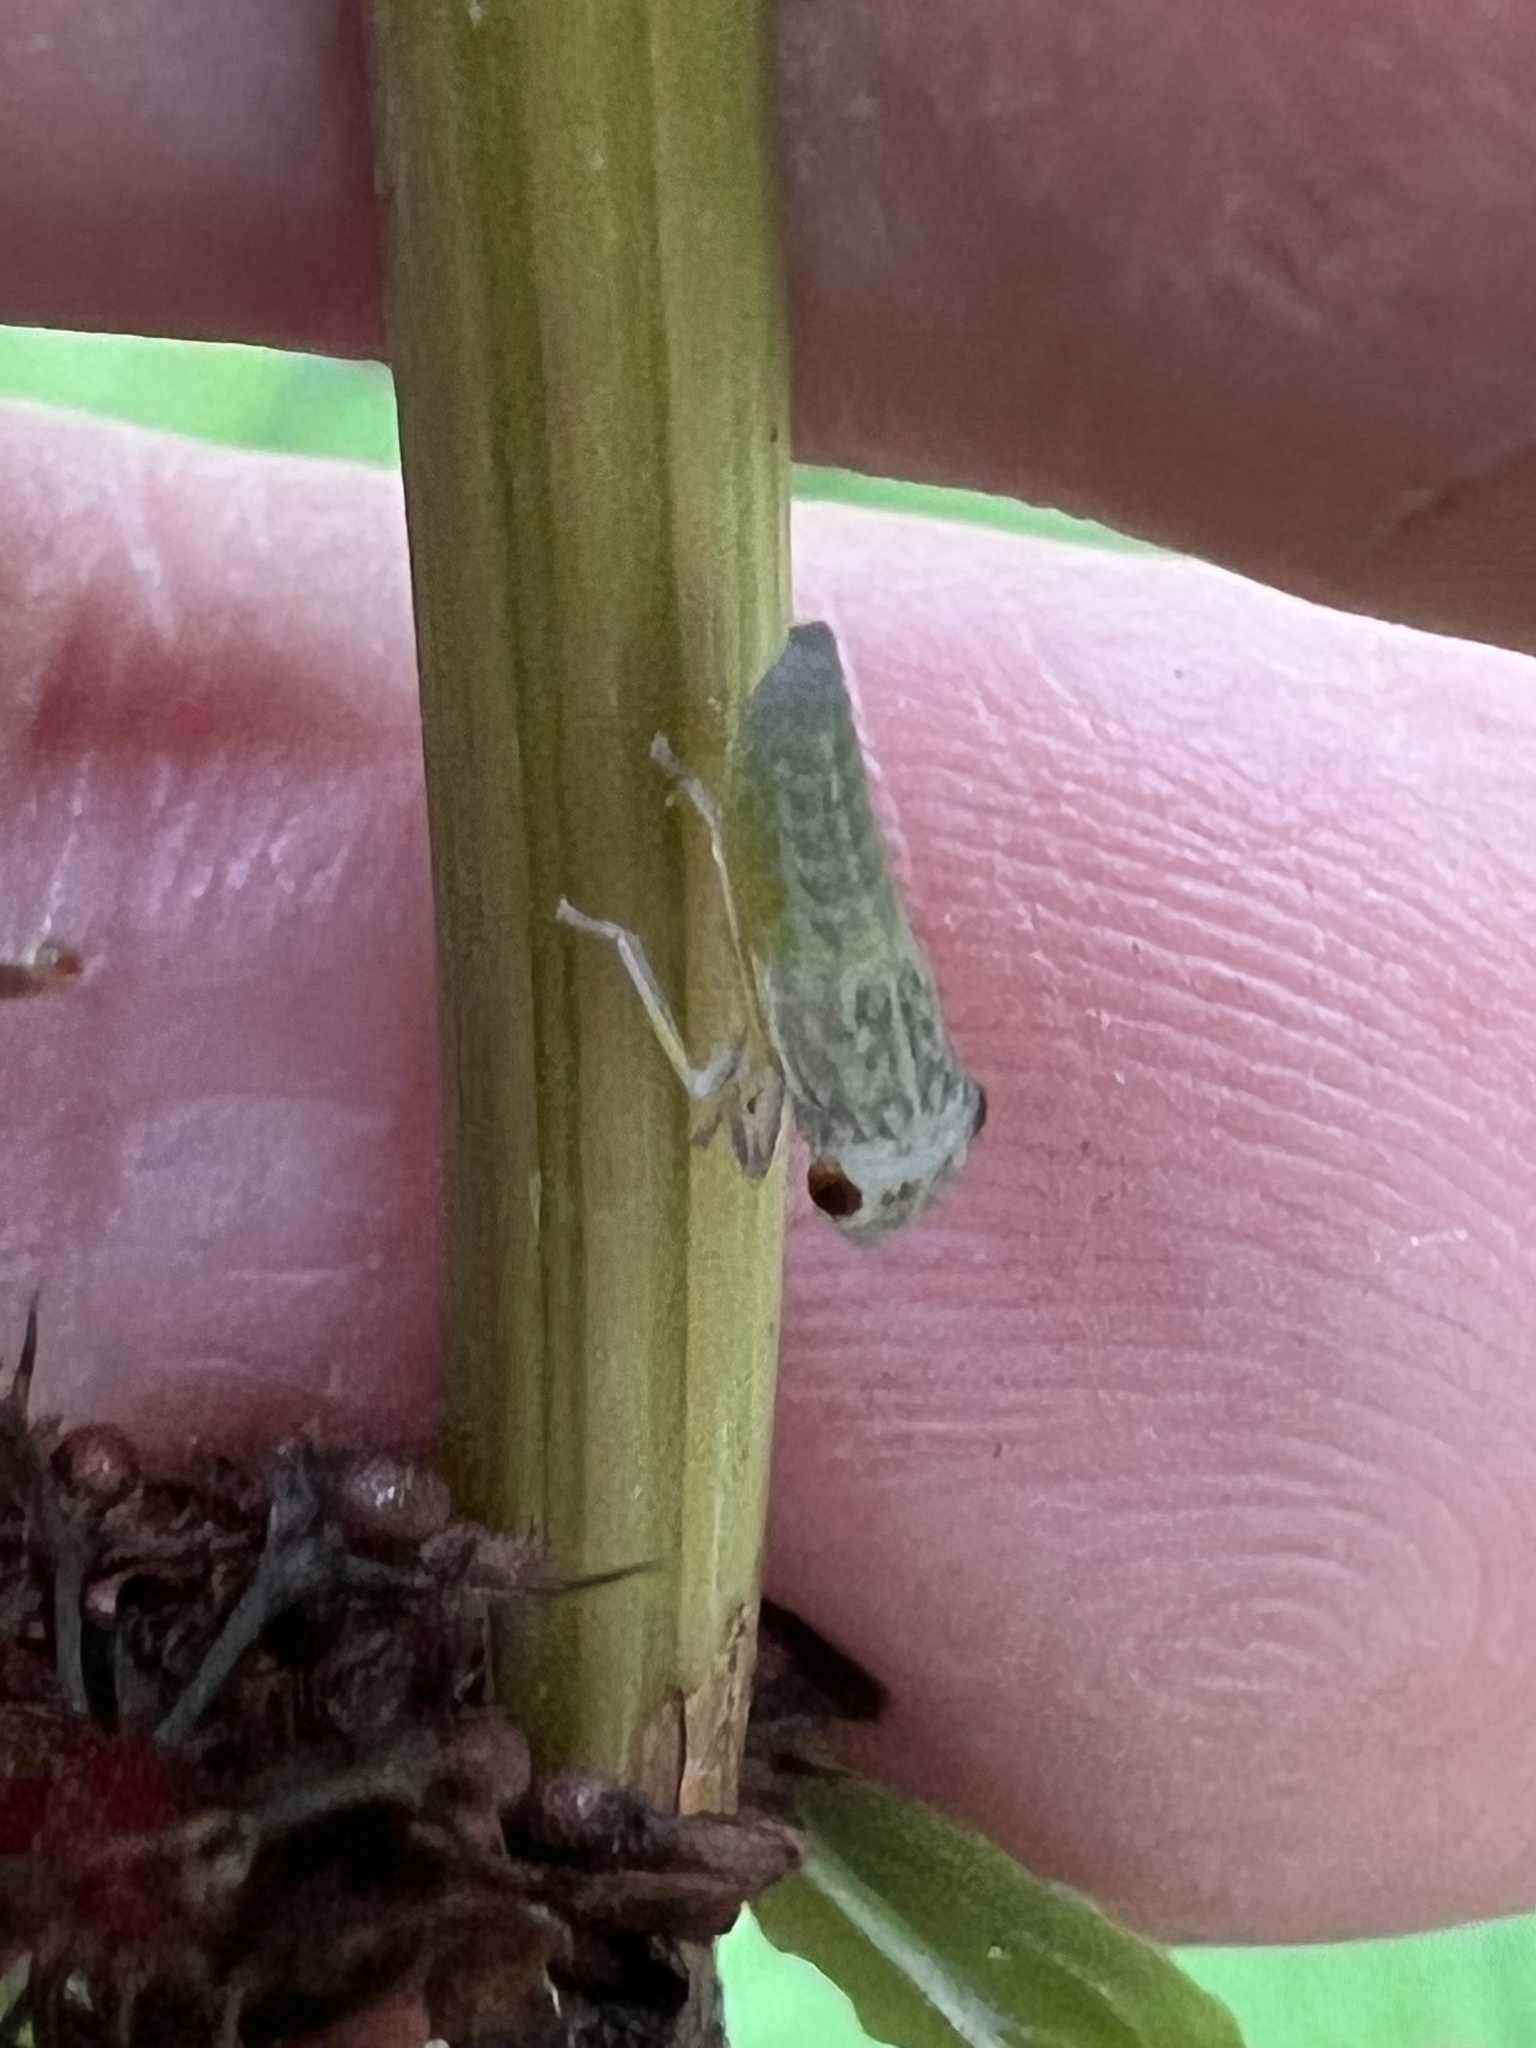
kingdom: Animalia
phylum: Arthropoda
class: Insecta
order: Hemiptera
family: Cicadellidae
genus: Oncometopia
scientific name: Oncometopia orbona
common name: Broad-headed sharpshooter
